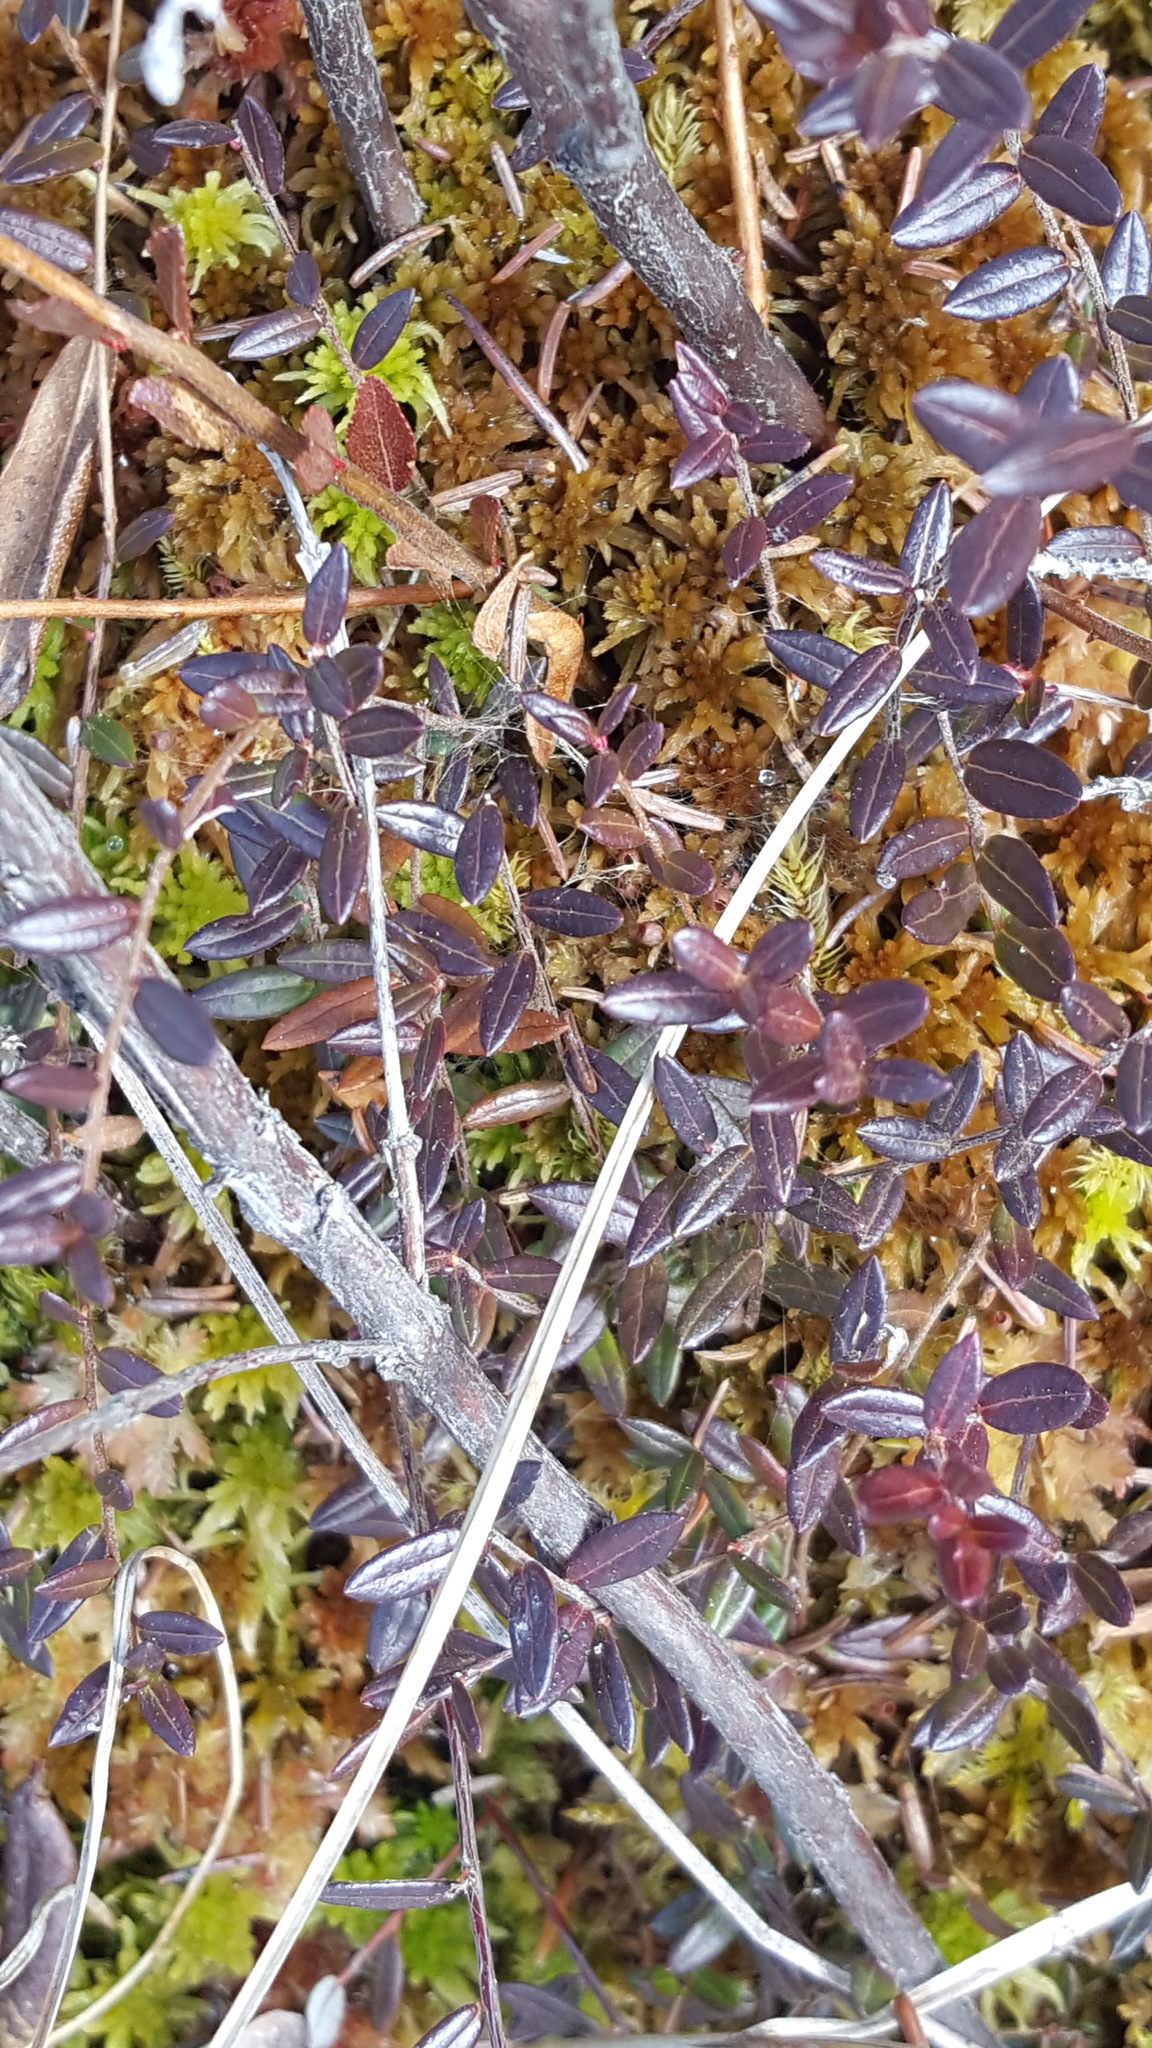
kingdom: Plantae
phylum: Tracheophyta
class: Magnoliopsida
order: Ericales
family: Ericaceae
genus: Vaccinium
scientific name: Vaccinium oxycoccos
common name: Cranberry
